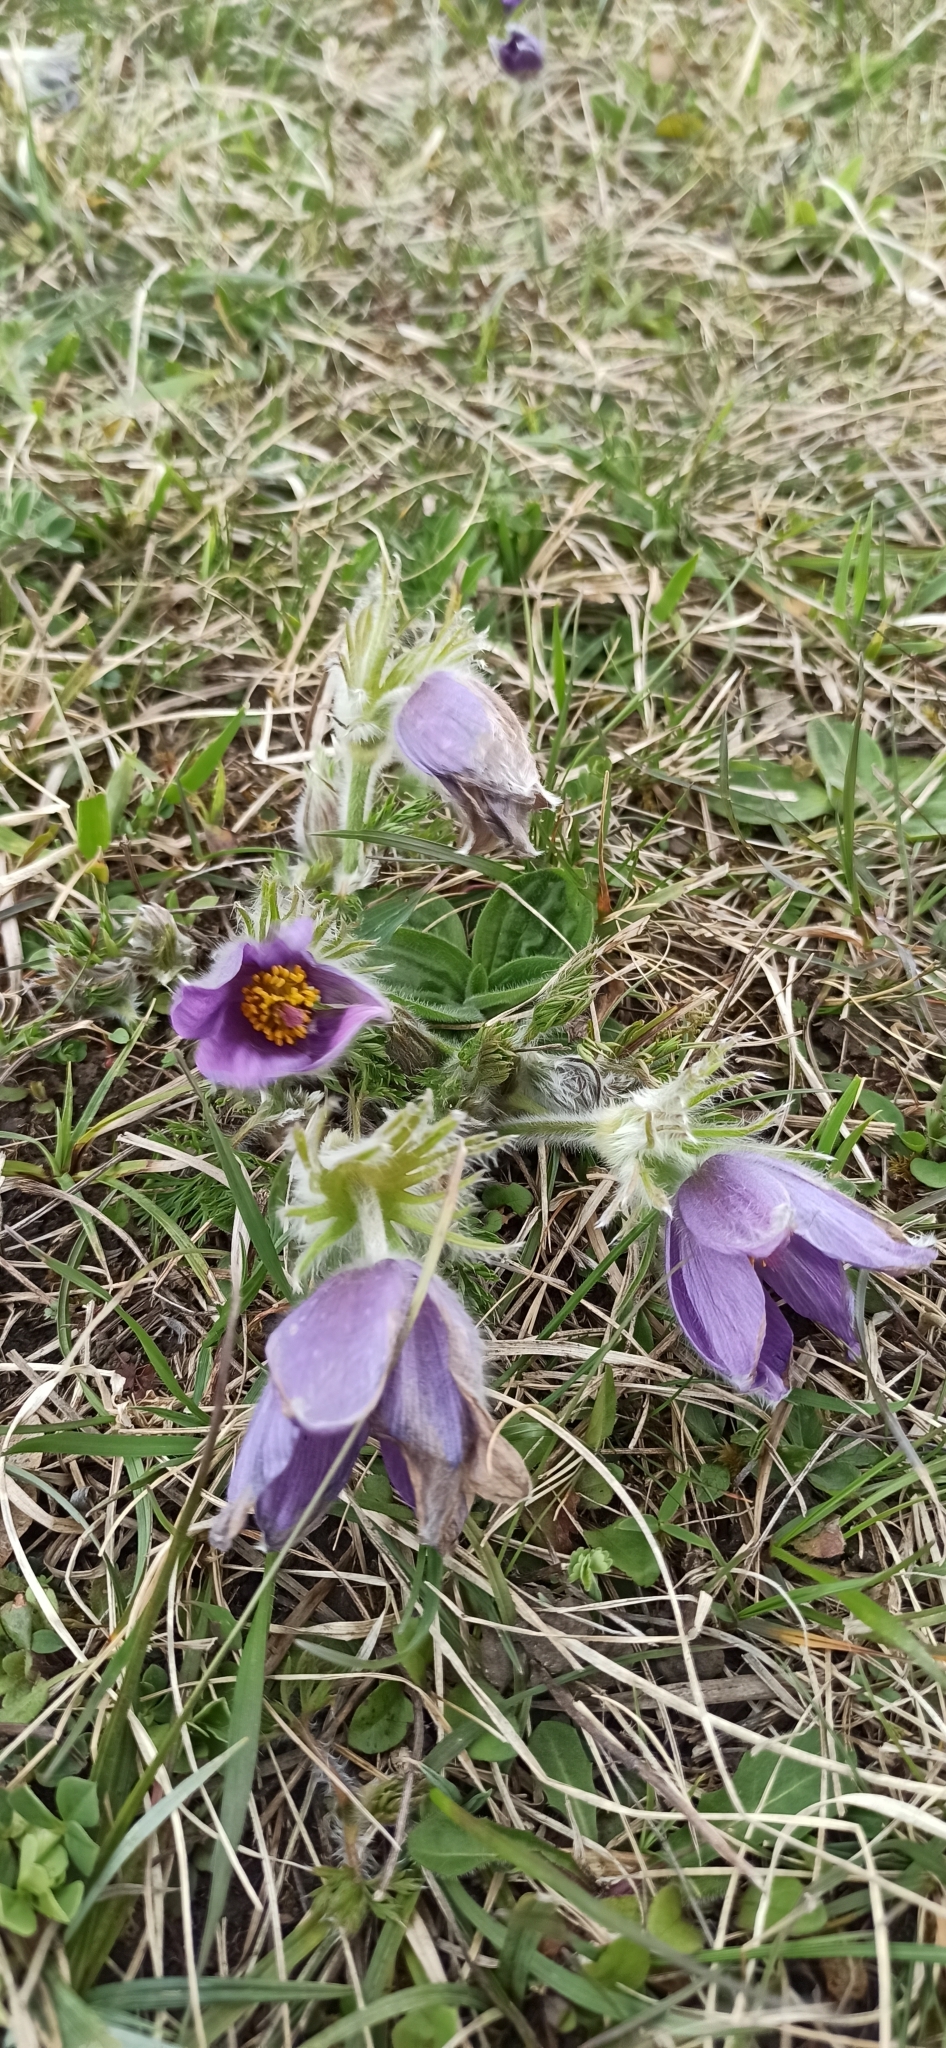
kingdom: Plantae
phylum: Tracheophyta
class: Magnoliopsida
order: Ranunculales
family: Ranunculaceae
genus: Pulsatilla
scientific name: Pulsatilla vulgaris
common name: Pasqueflower
